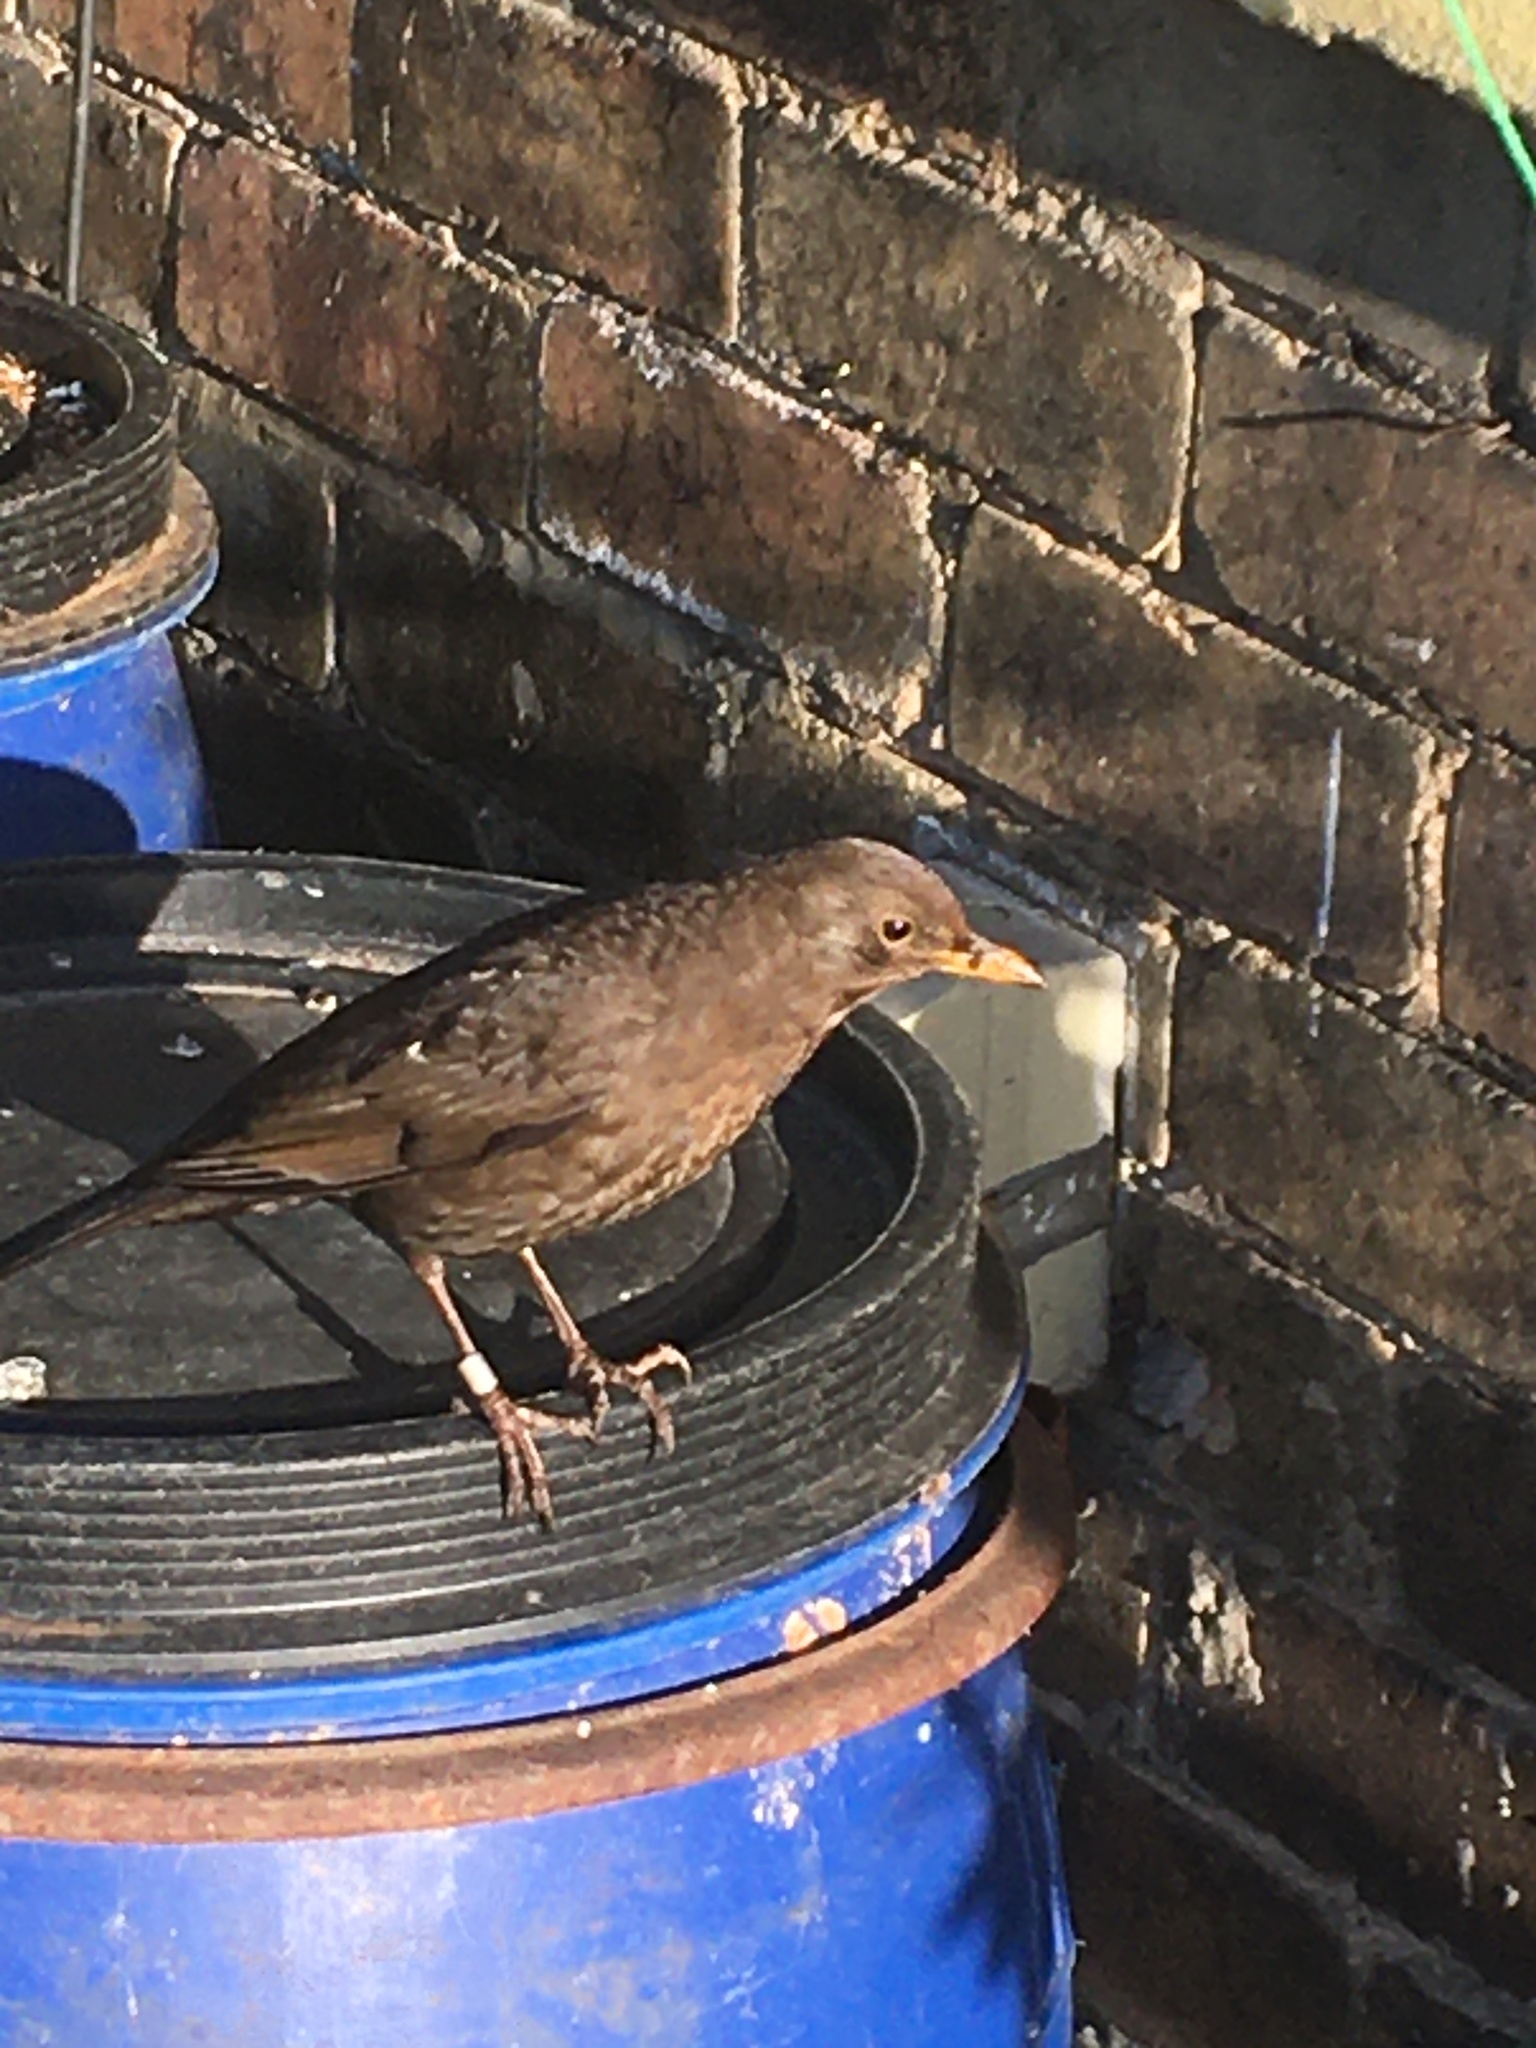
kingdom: Animalia
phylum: Chordata
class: Aves
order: Passeriformes
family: Turdidae
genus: Turdus
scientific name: Turdus merula
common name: Common blackbird
